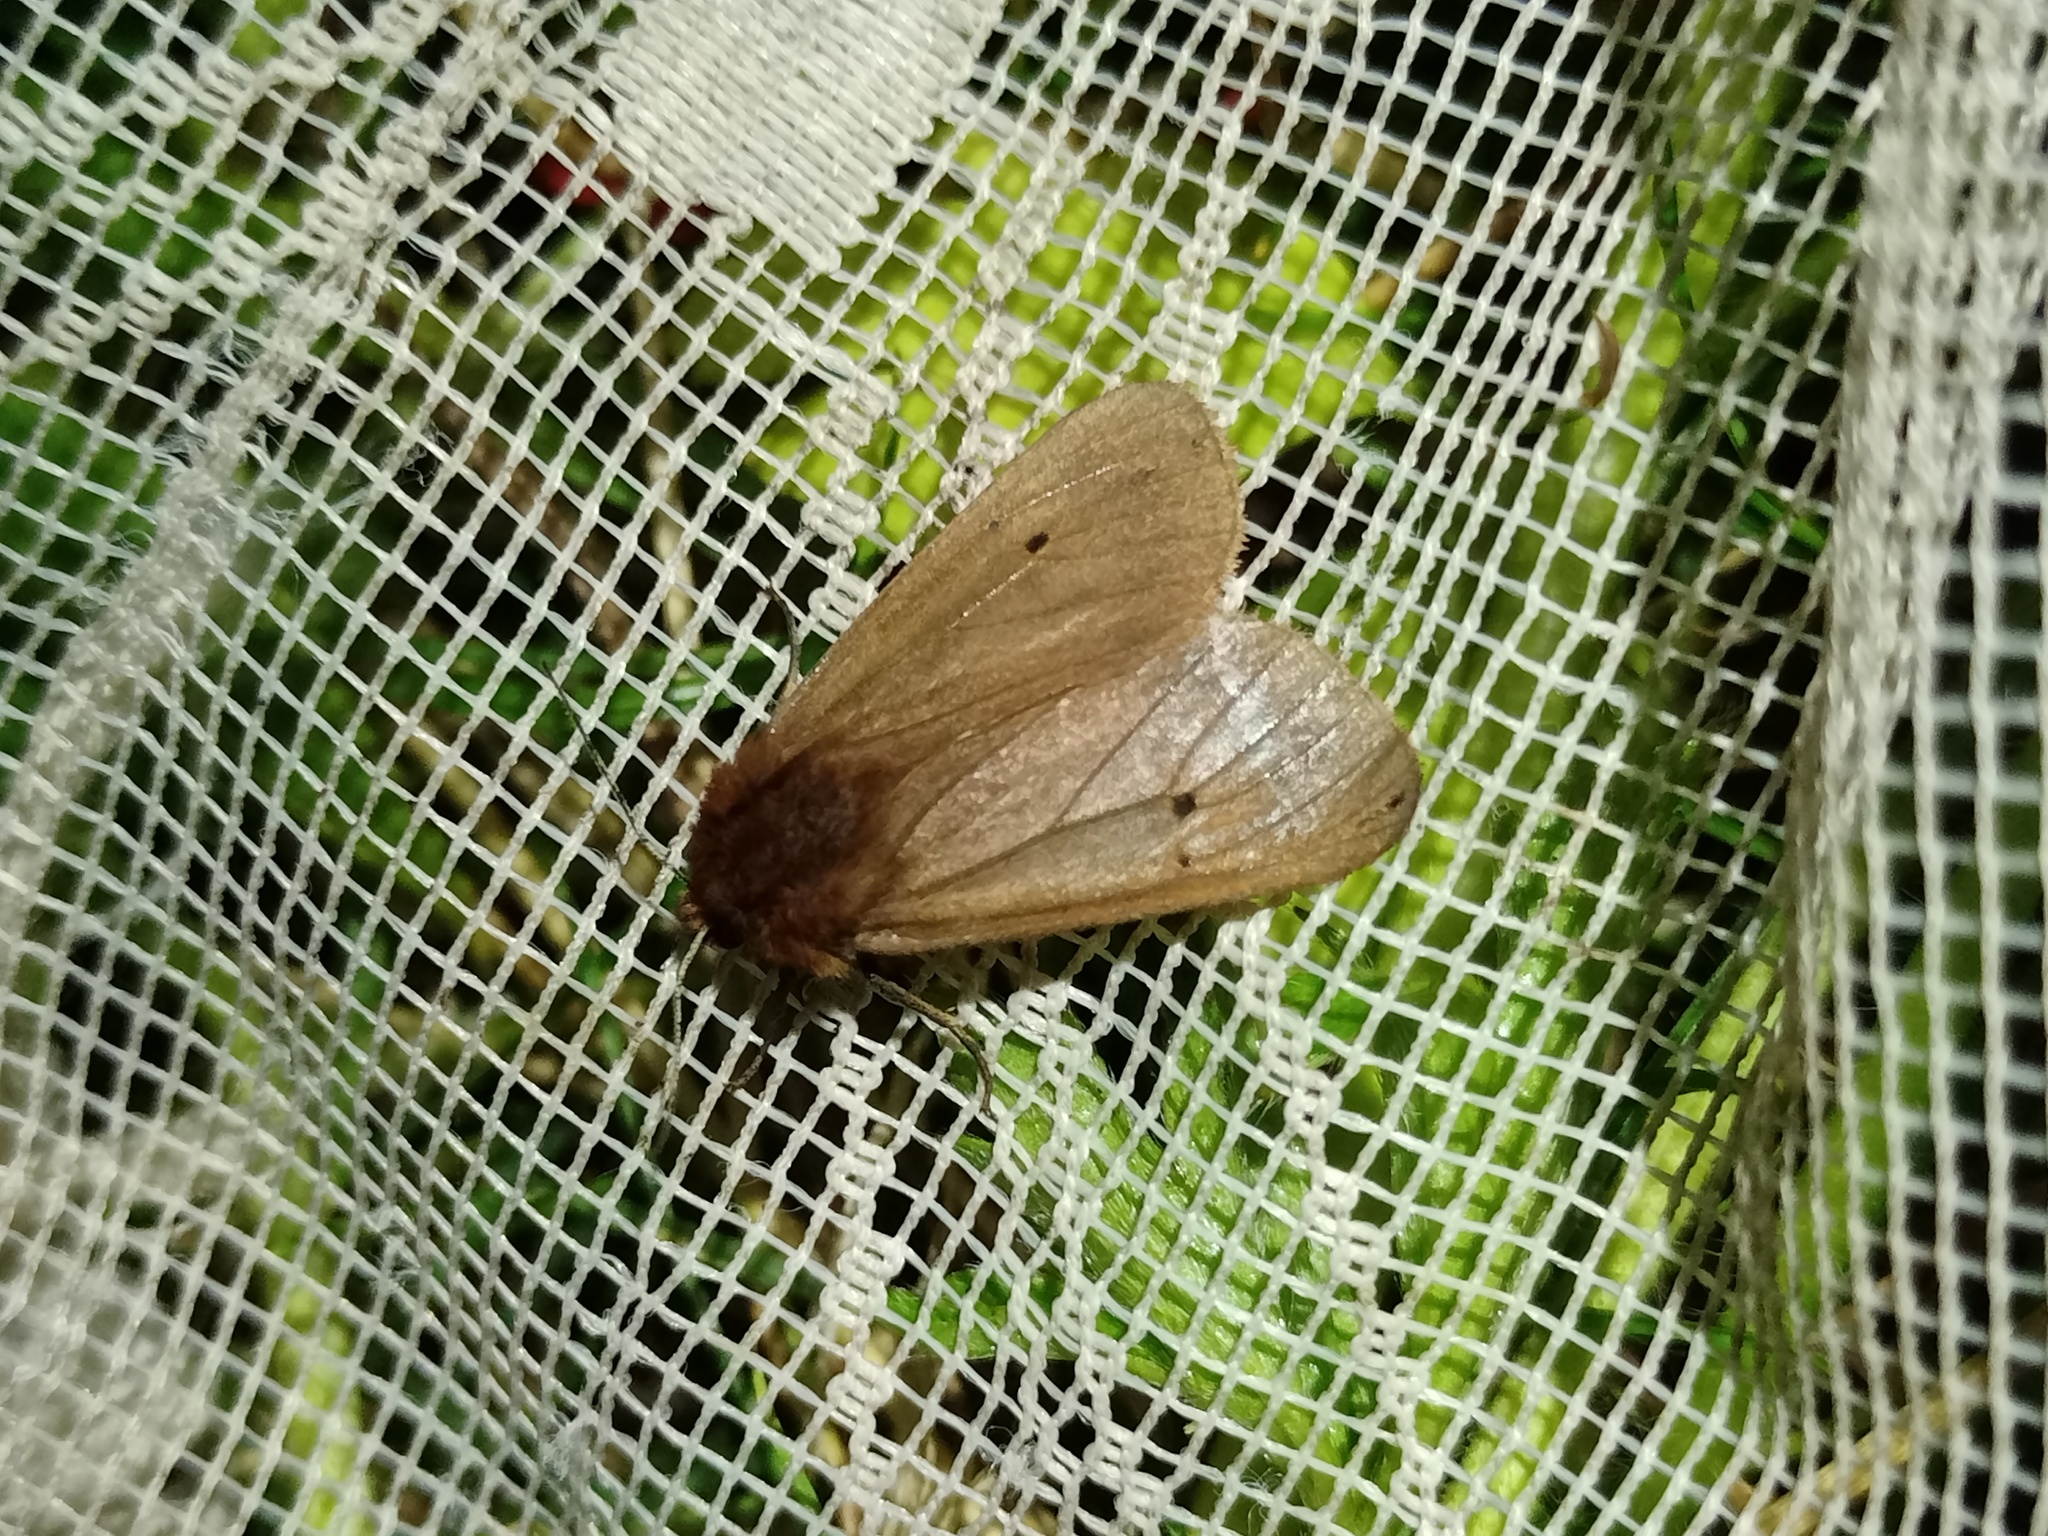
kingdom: Animalia
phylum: Arthropoda
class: Insecta
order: Lepidoptera
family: Erebidae
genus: Phragmatobia
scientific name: Phragmatobia fuliginosa
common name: Ruby tiger
